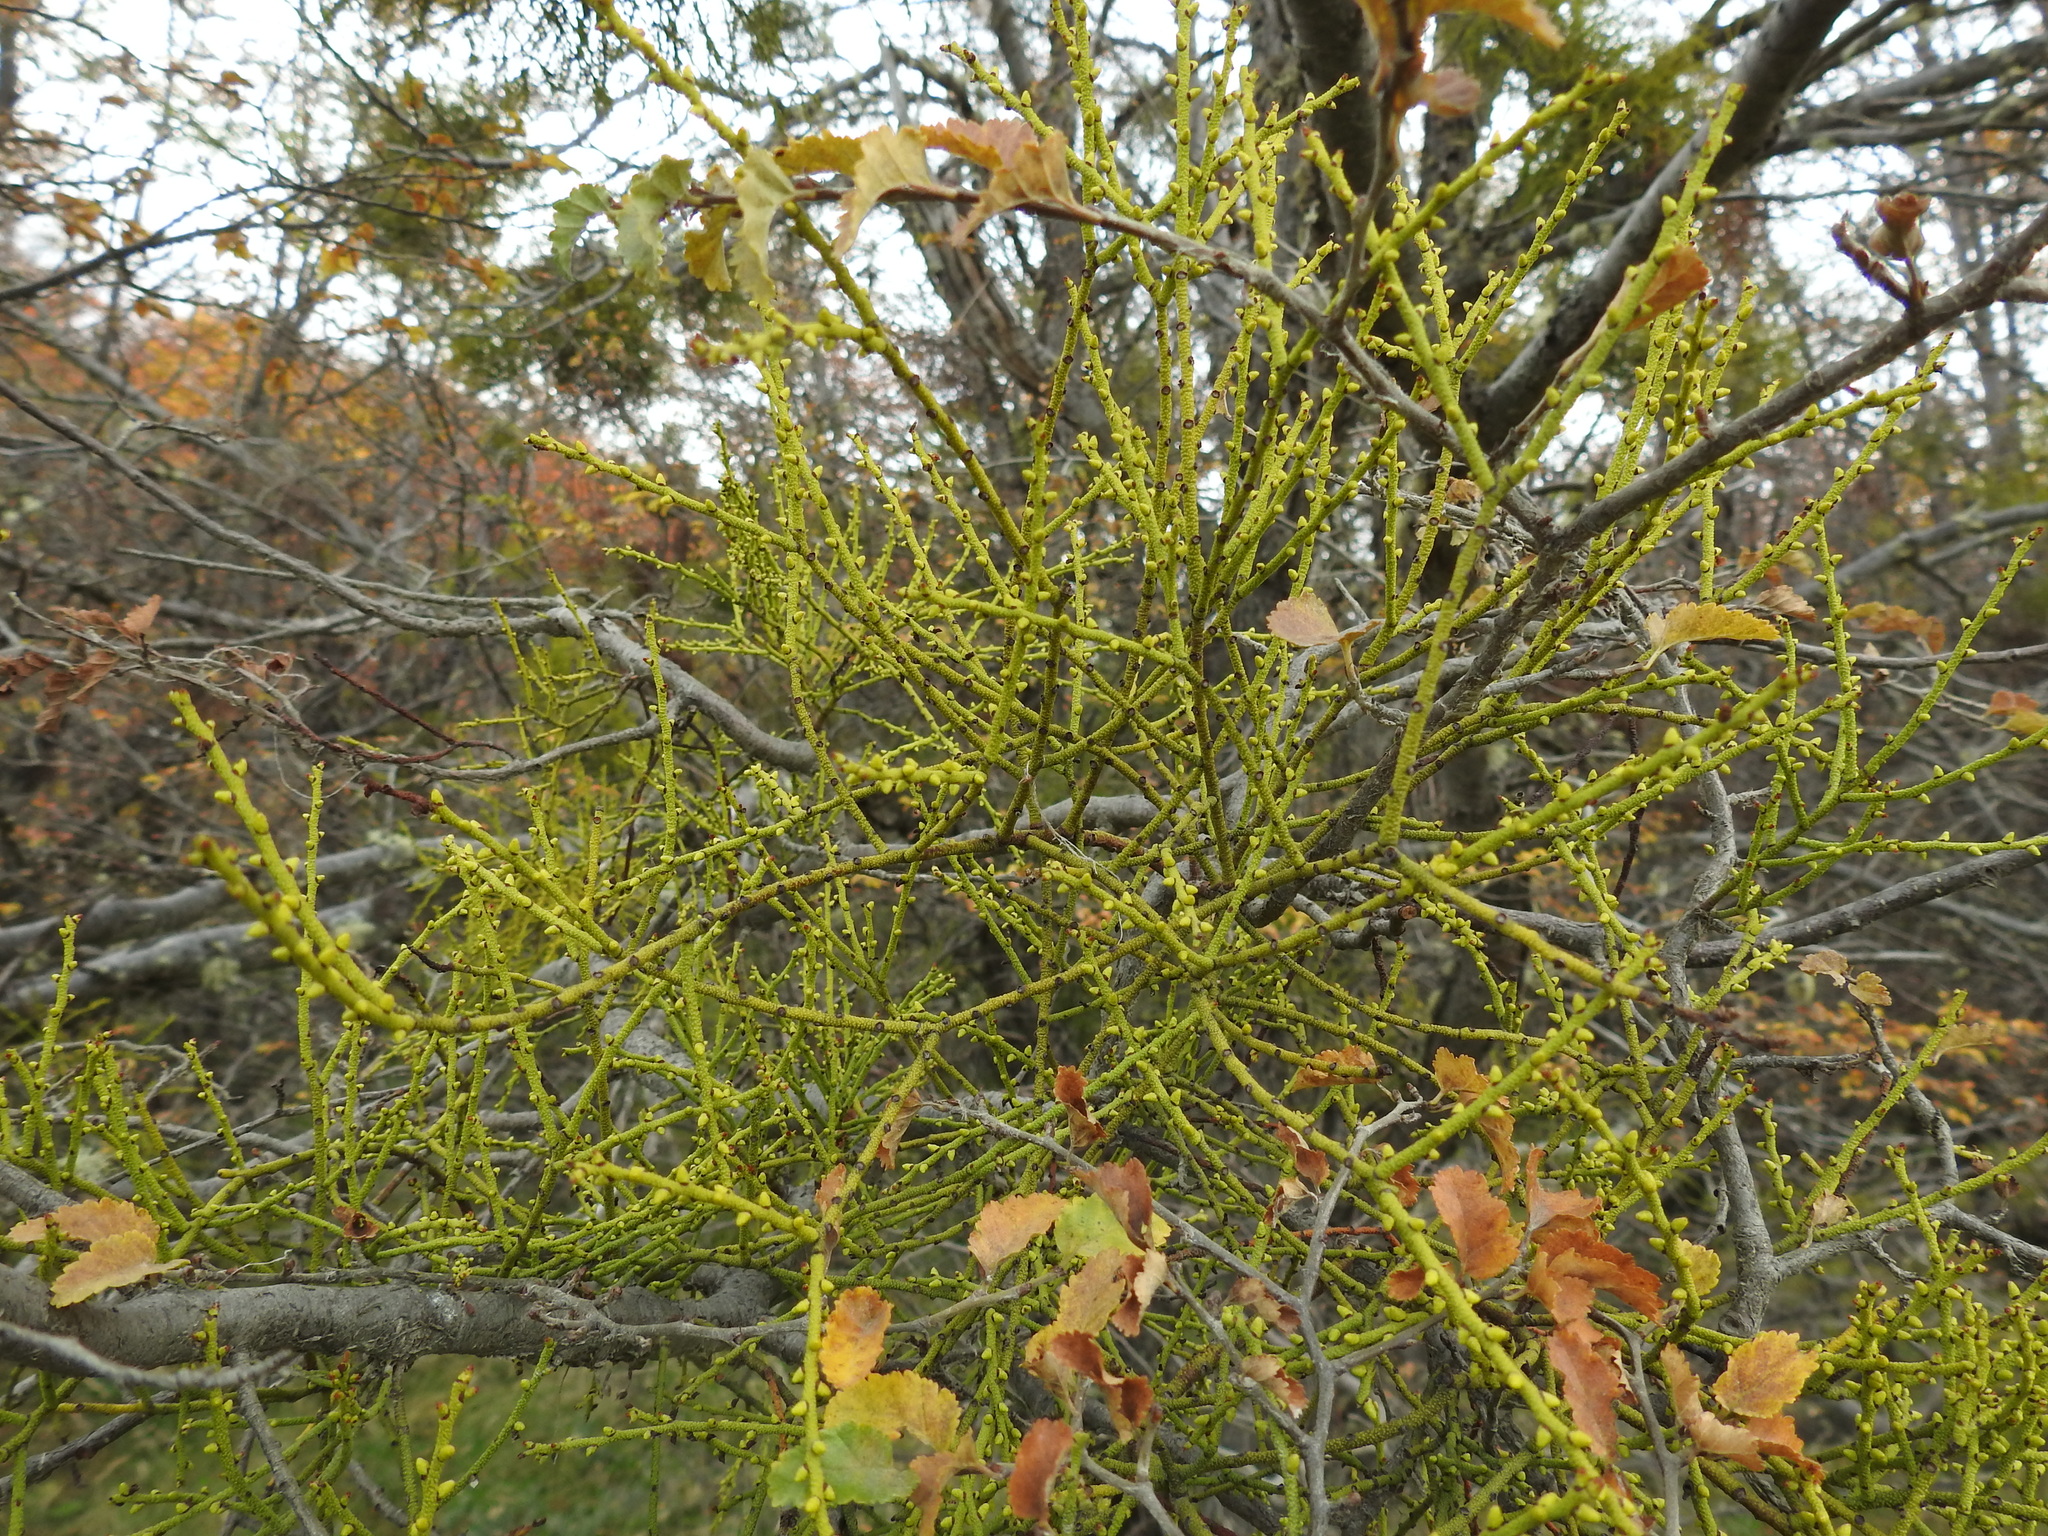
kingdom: Plantae
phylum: Tracheophyta
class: Magnoliopsida
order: Santalales
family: Misodendraceae
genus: Misodendrum
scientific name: Misodendrum punctulatum
